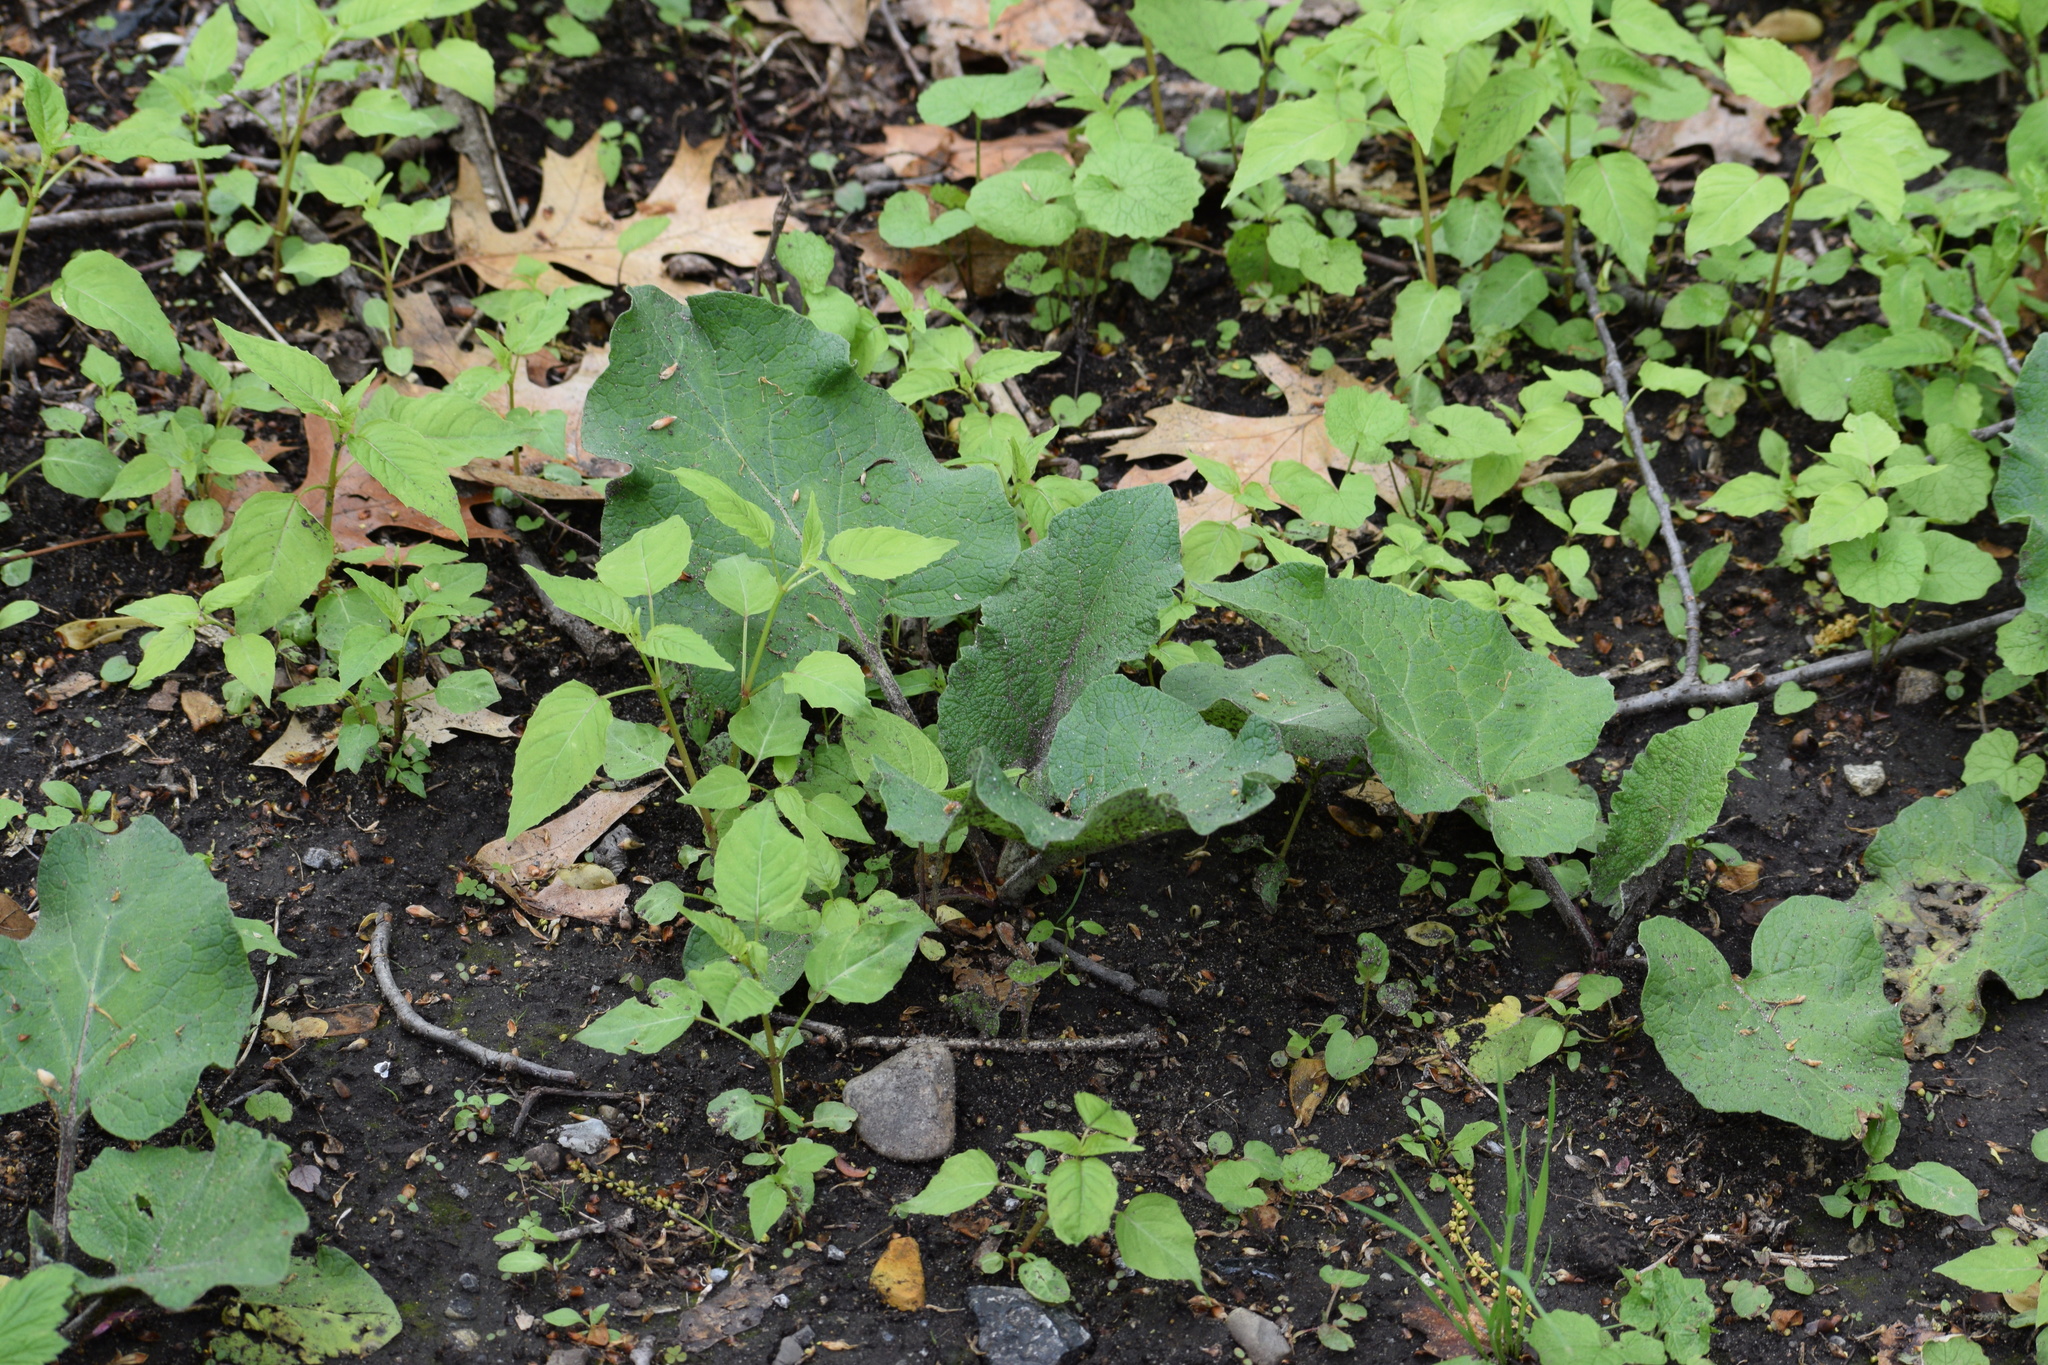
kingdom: Plantae
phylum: Tracheophyta
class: Magnoliopsida
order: Asterales
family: Asteraceae
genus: Arctium
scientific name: Arctium
